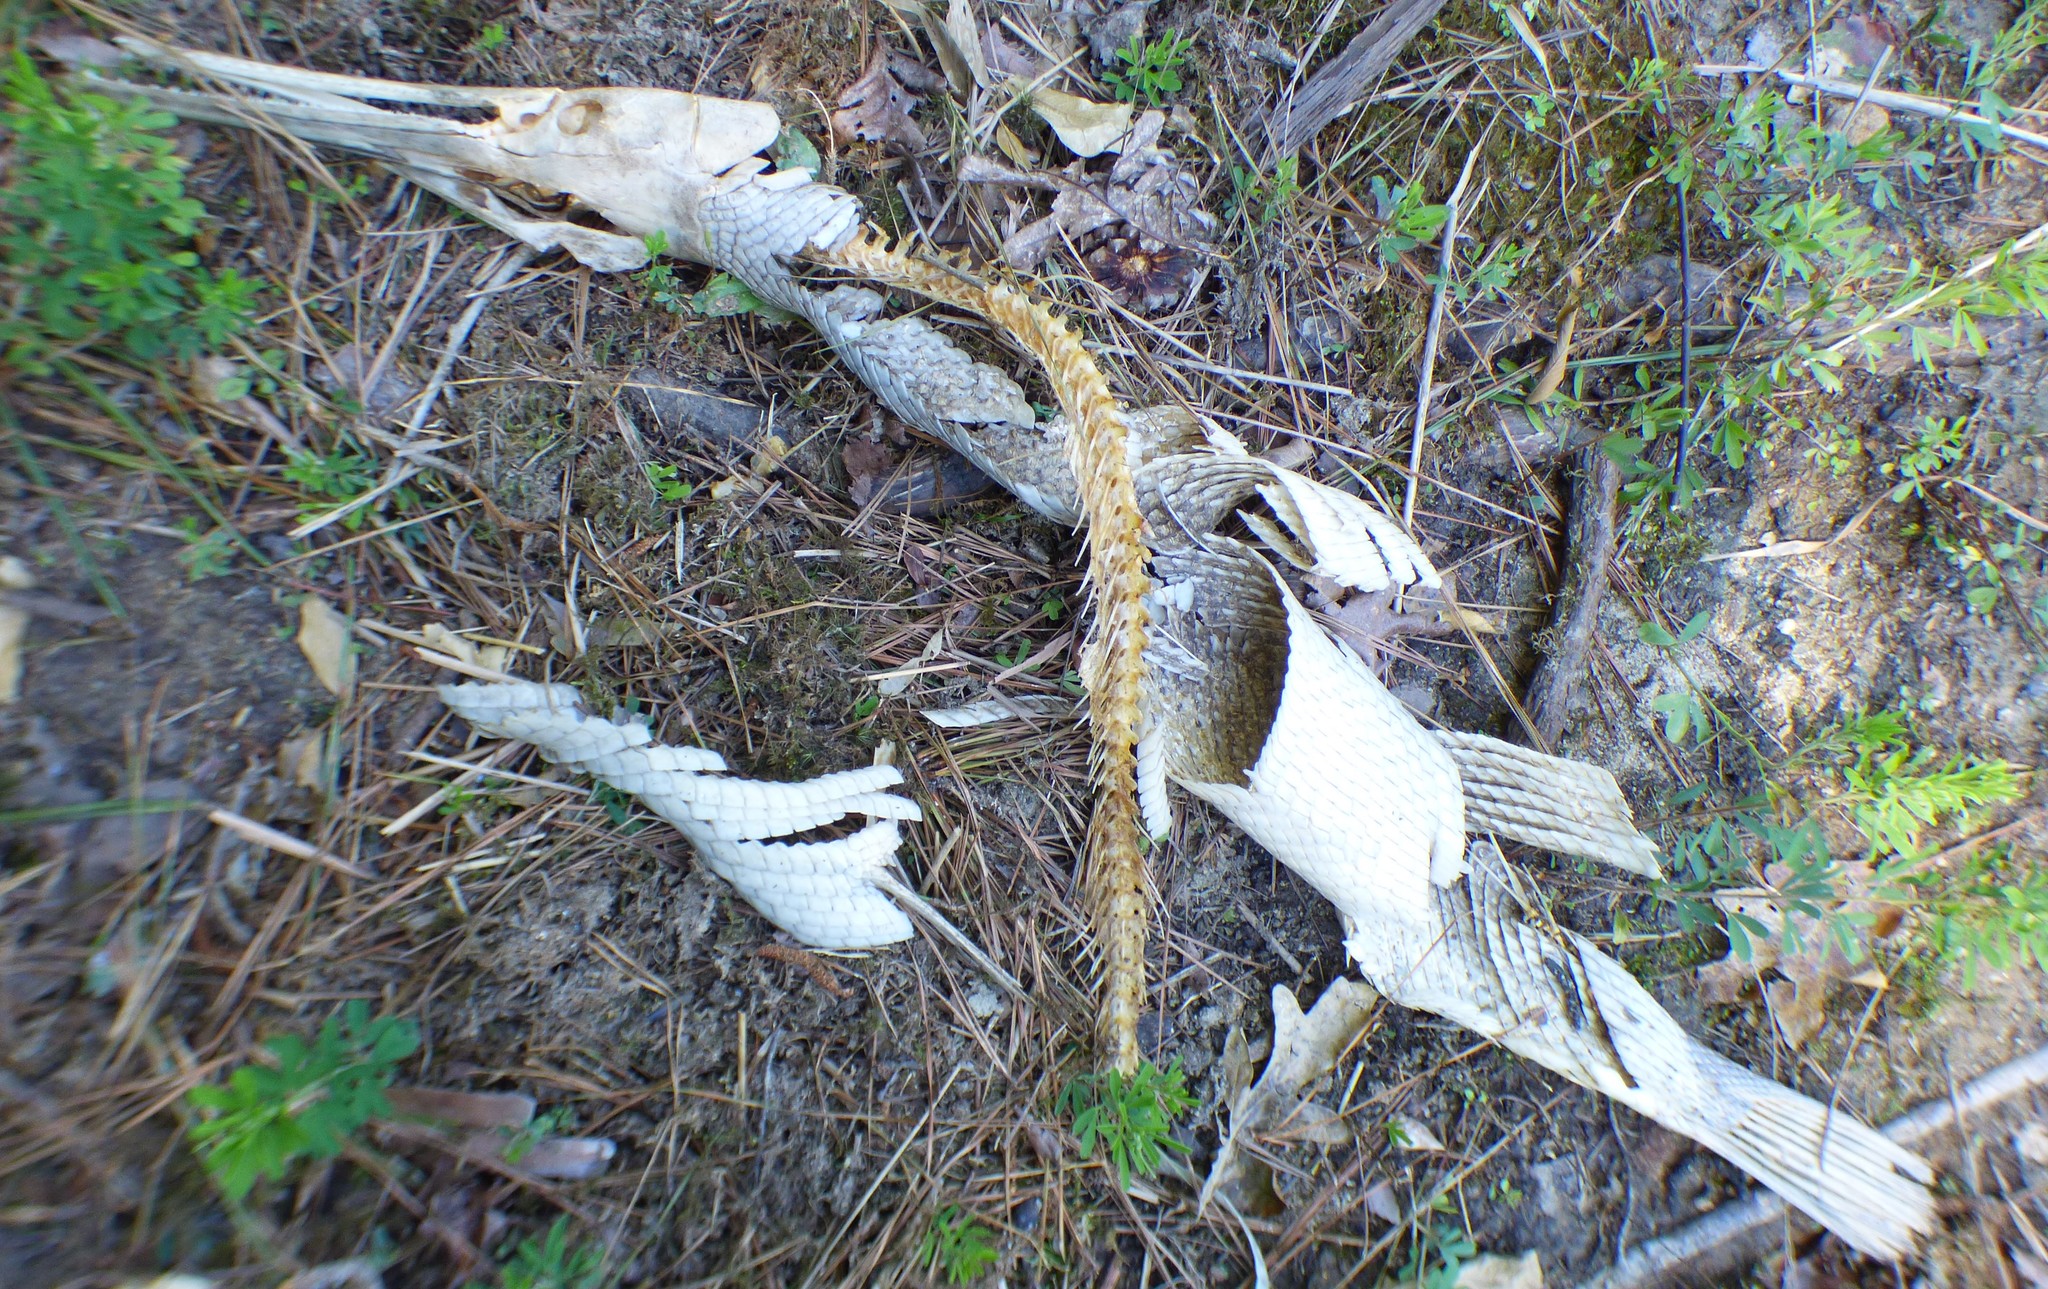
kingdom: Animalia
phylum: Chordata
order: Lepisosteiformes
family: Lepisosteidae
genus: Lepisosteus
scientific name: Lepisosteus osseus
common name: Longnose gar
